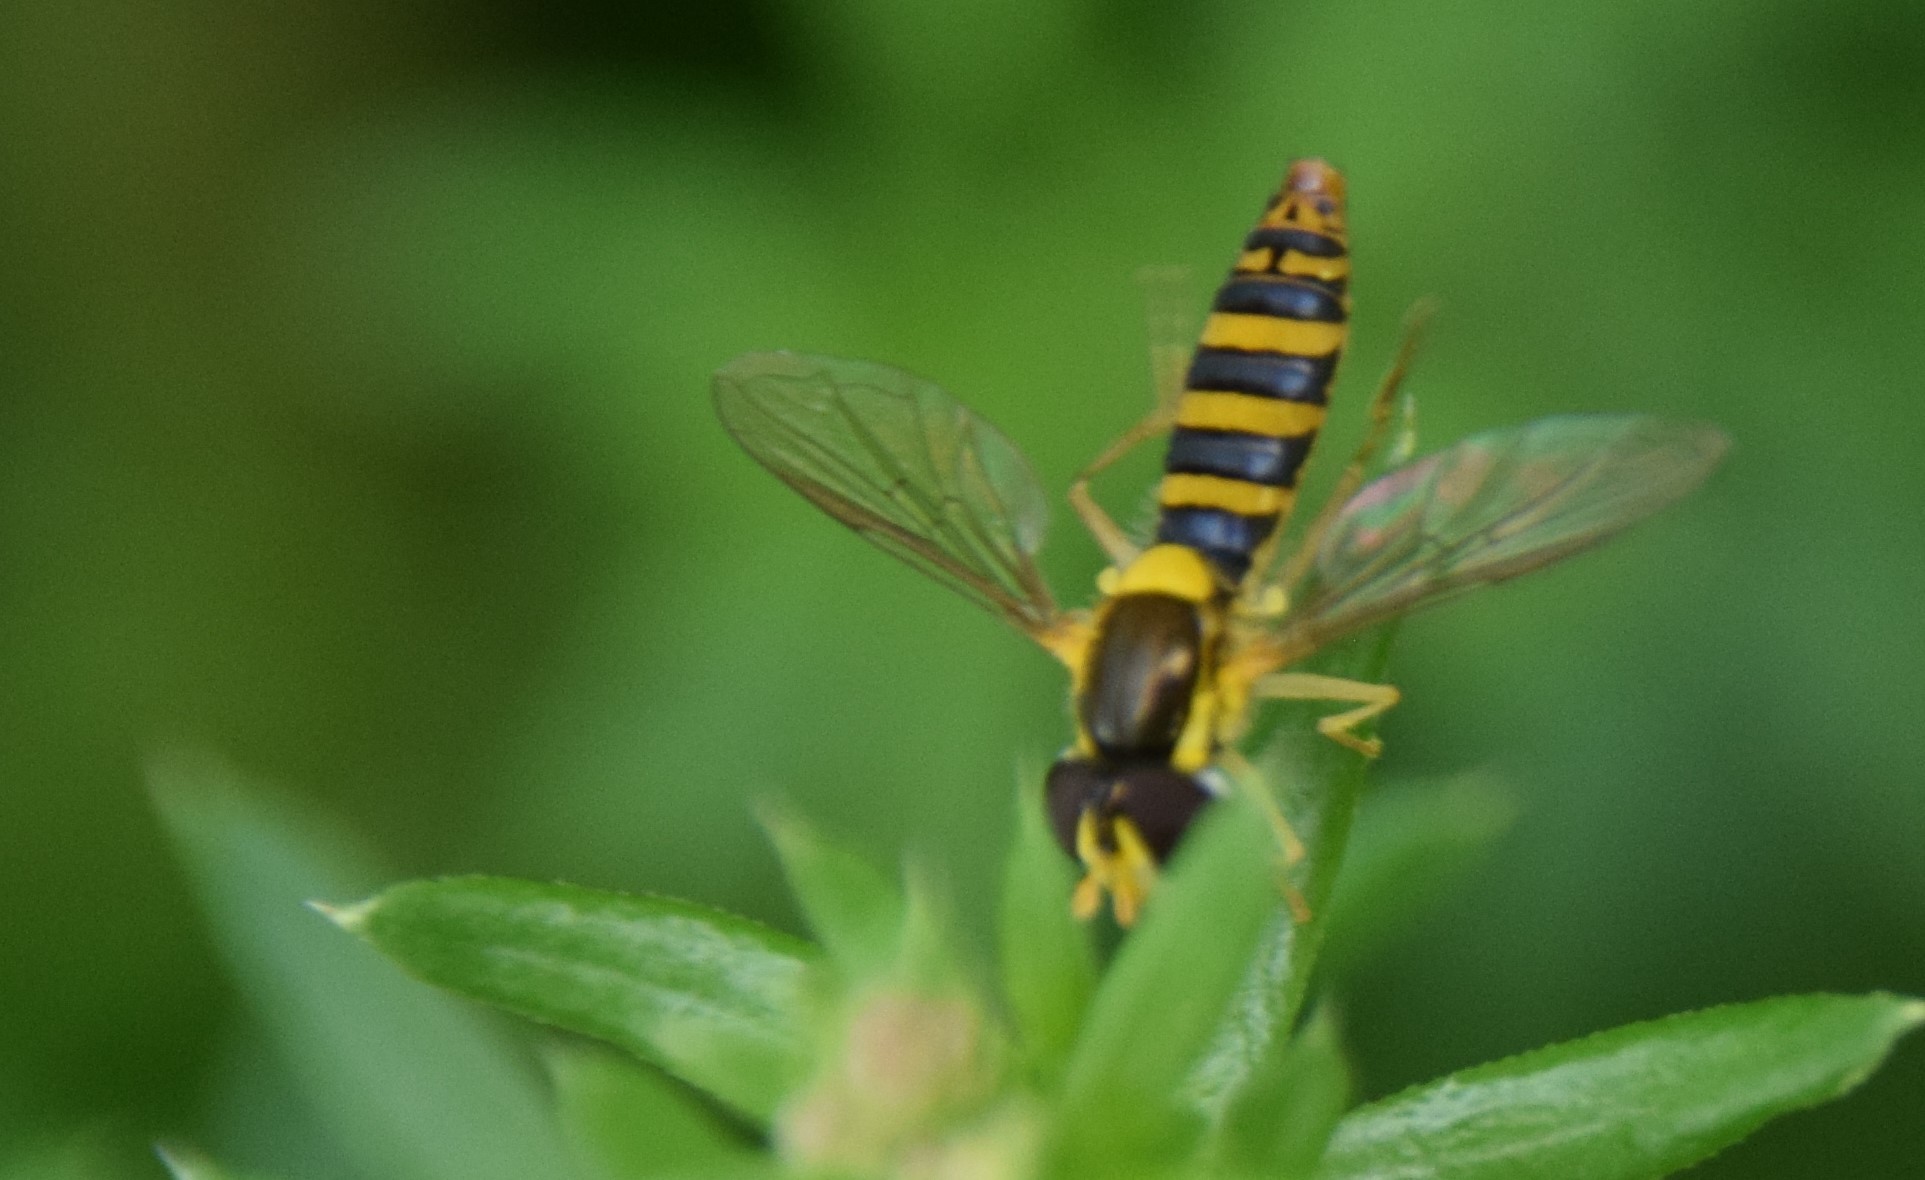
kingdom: Animalia
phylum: Arthropoda
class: Insecta
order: Diptera
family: Syrphidae
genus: Sphaerophoria
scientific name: Sphaerophoria
